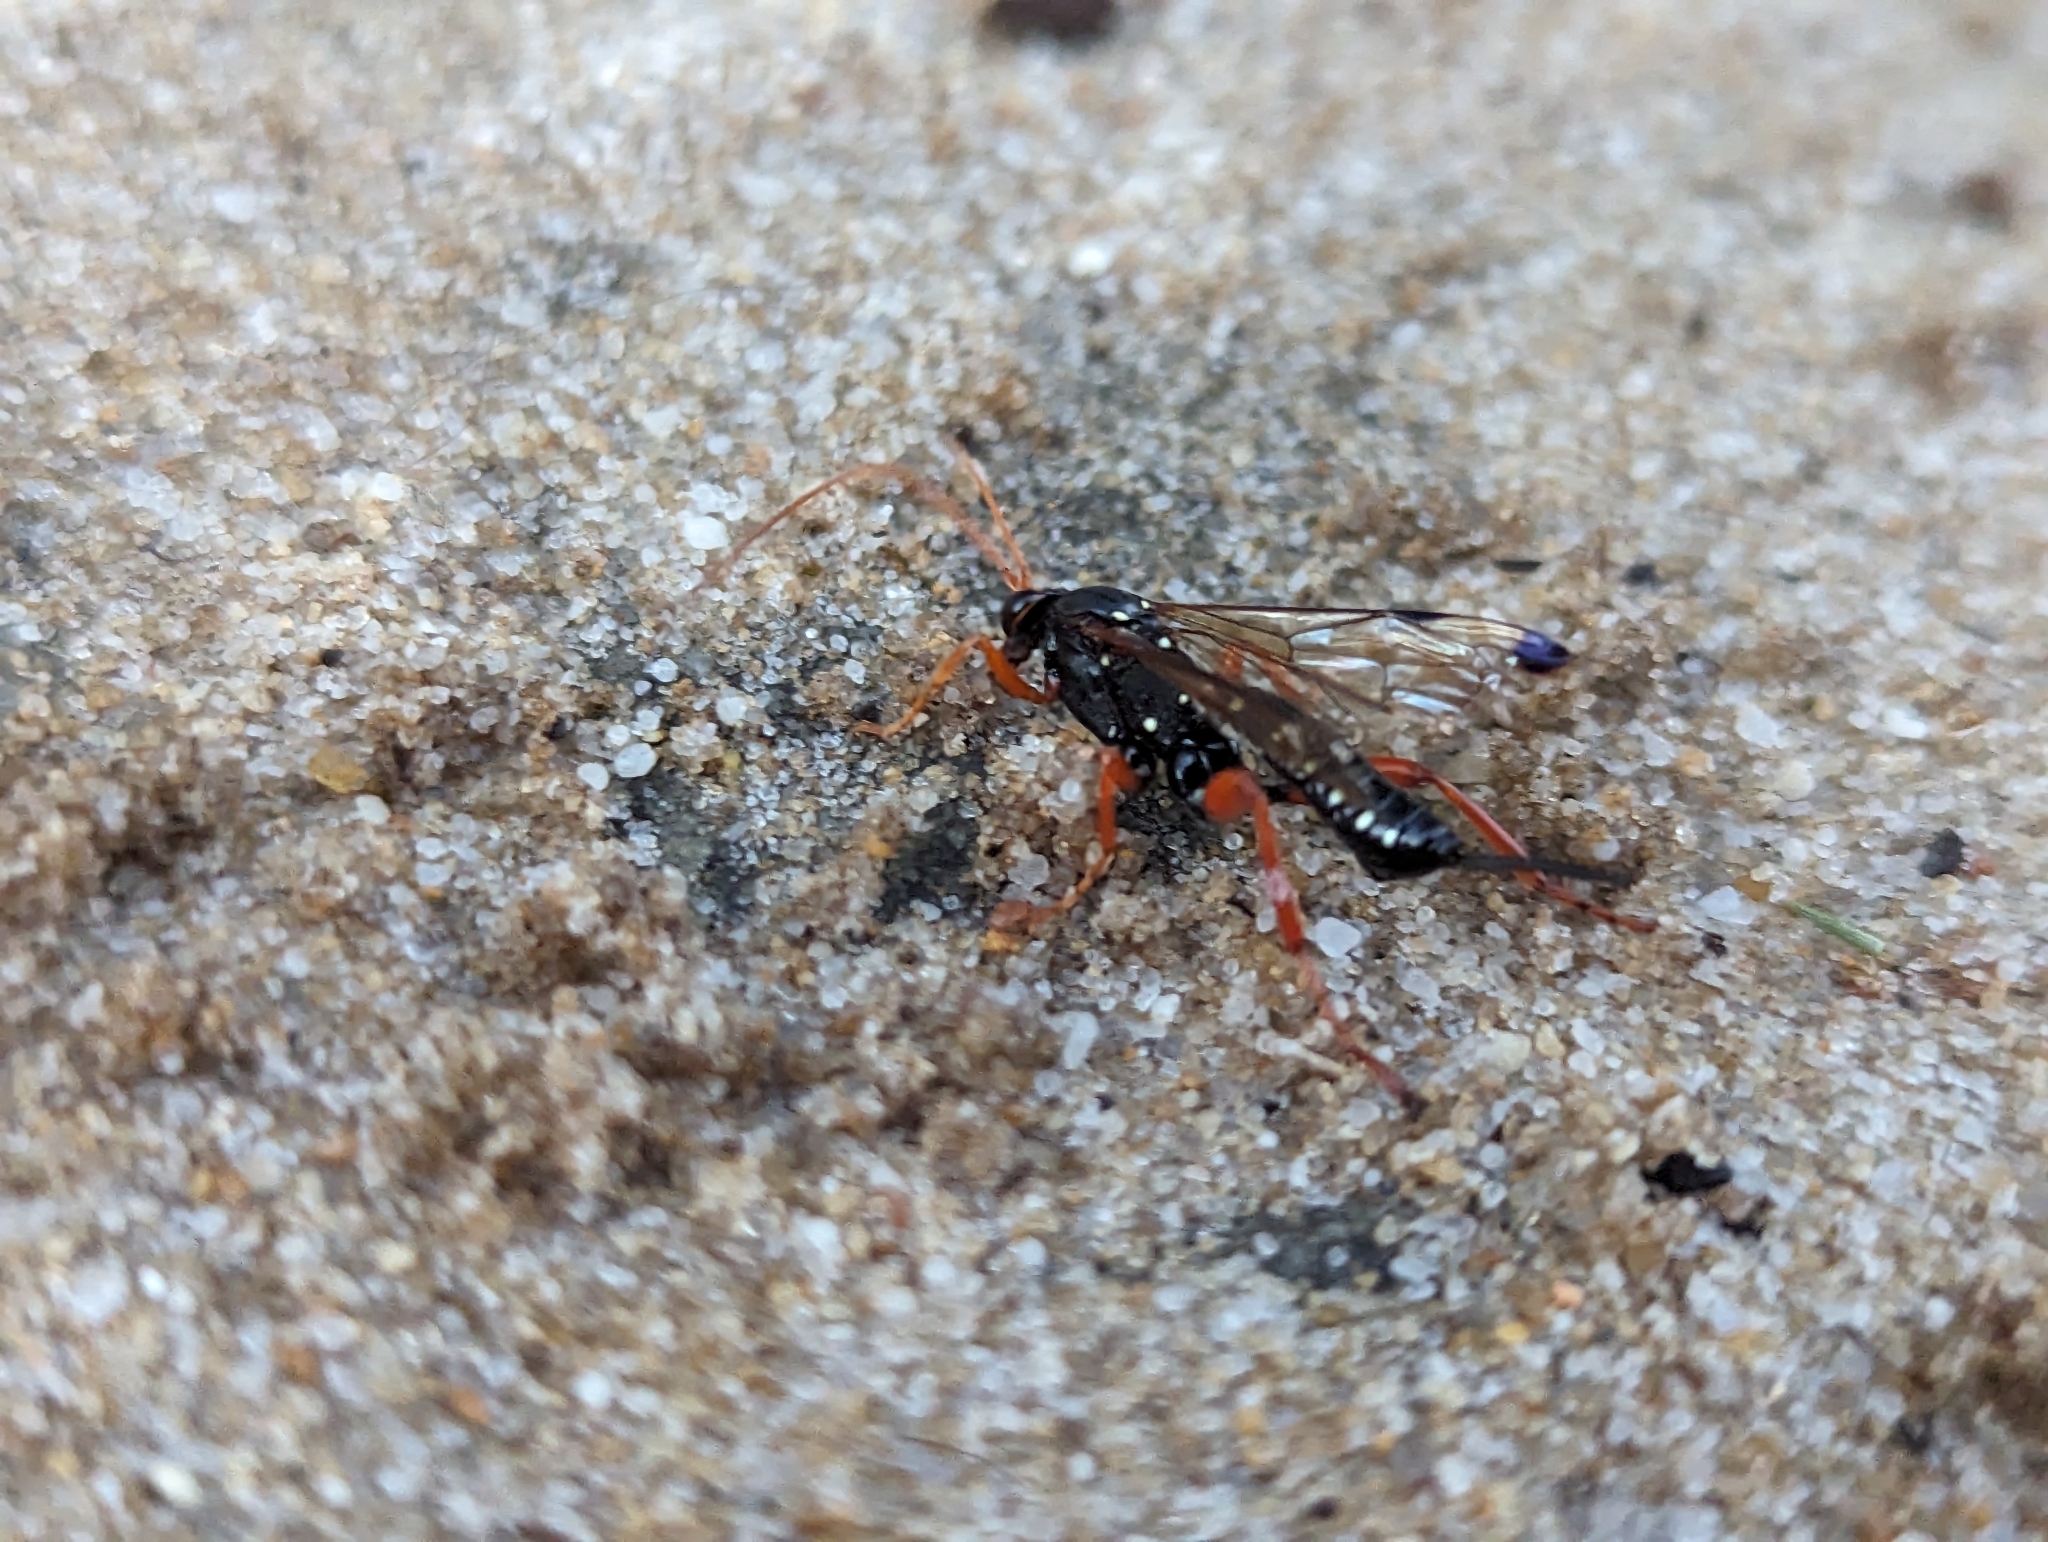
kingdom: Animalia
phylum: Arthropoda
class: Insecta
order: Hymenoptera
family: Ichneumonidae
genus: Echthromorpha
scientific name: Echthromorpha intricatoria
